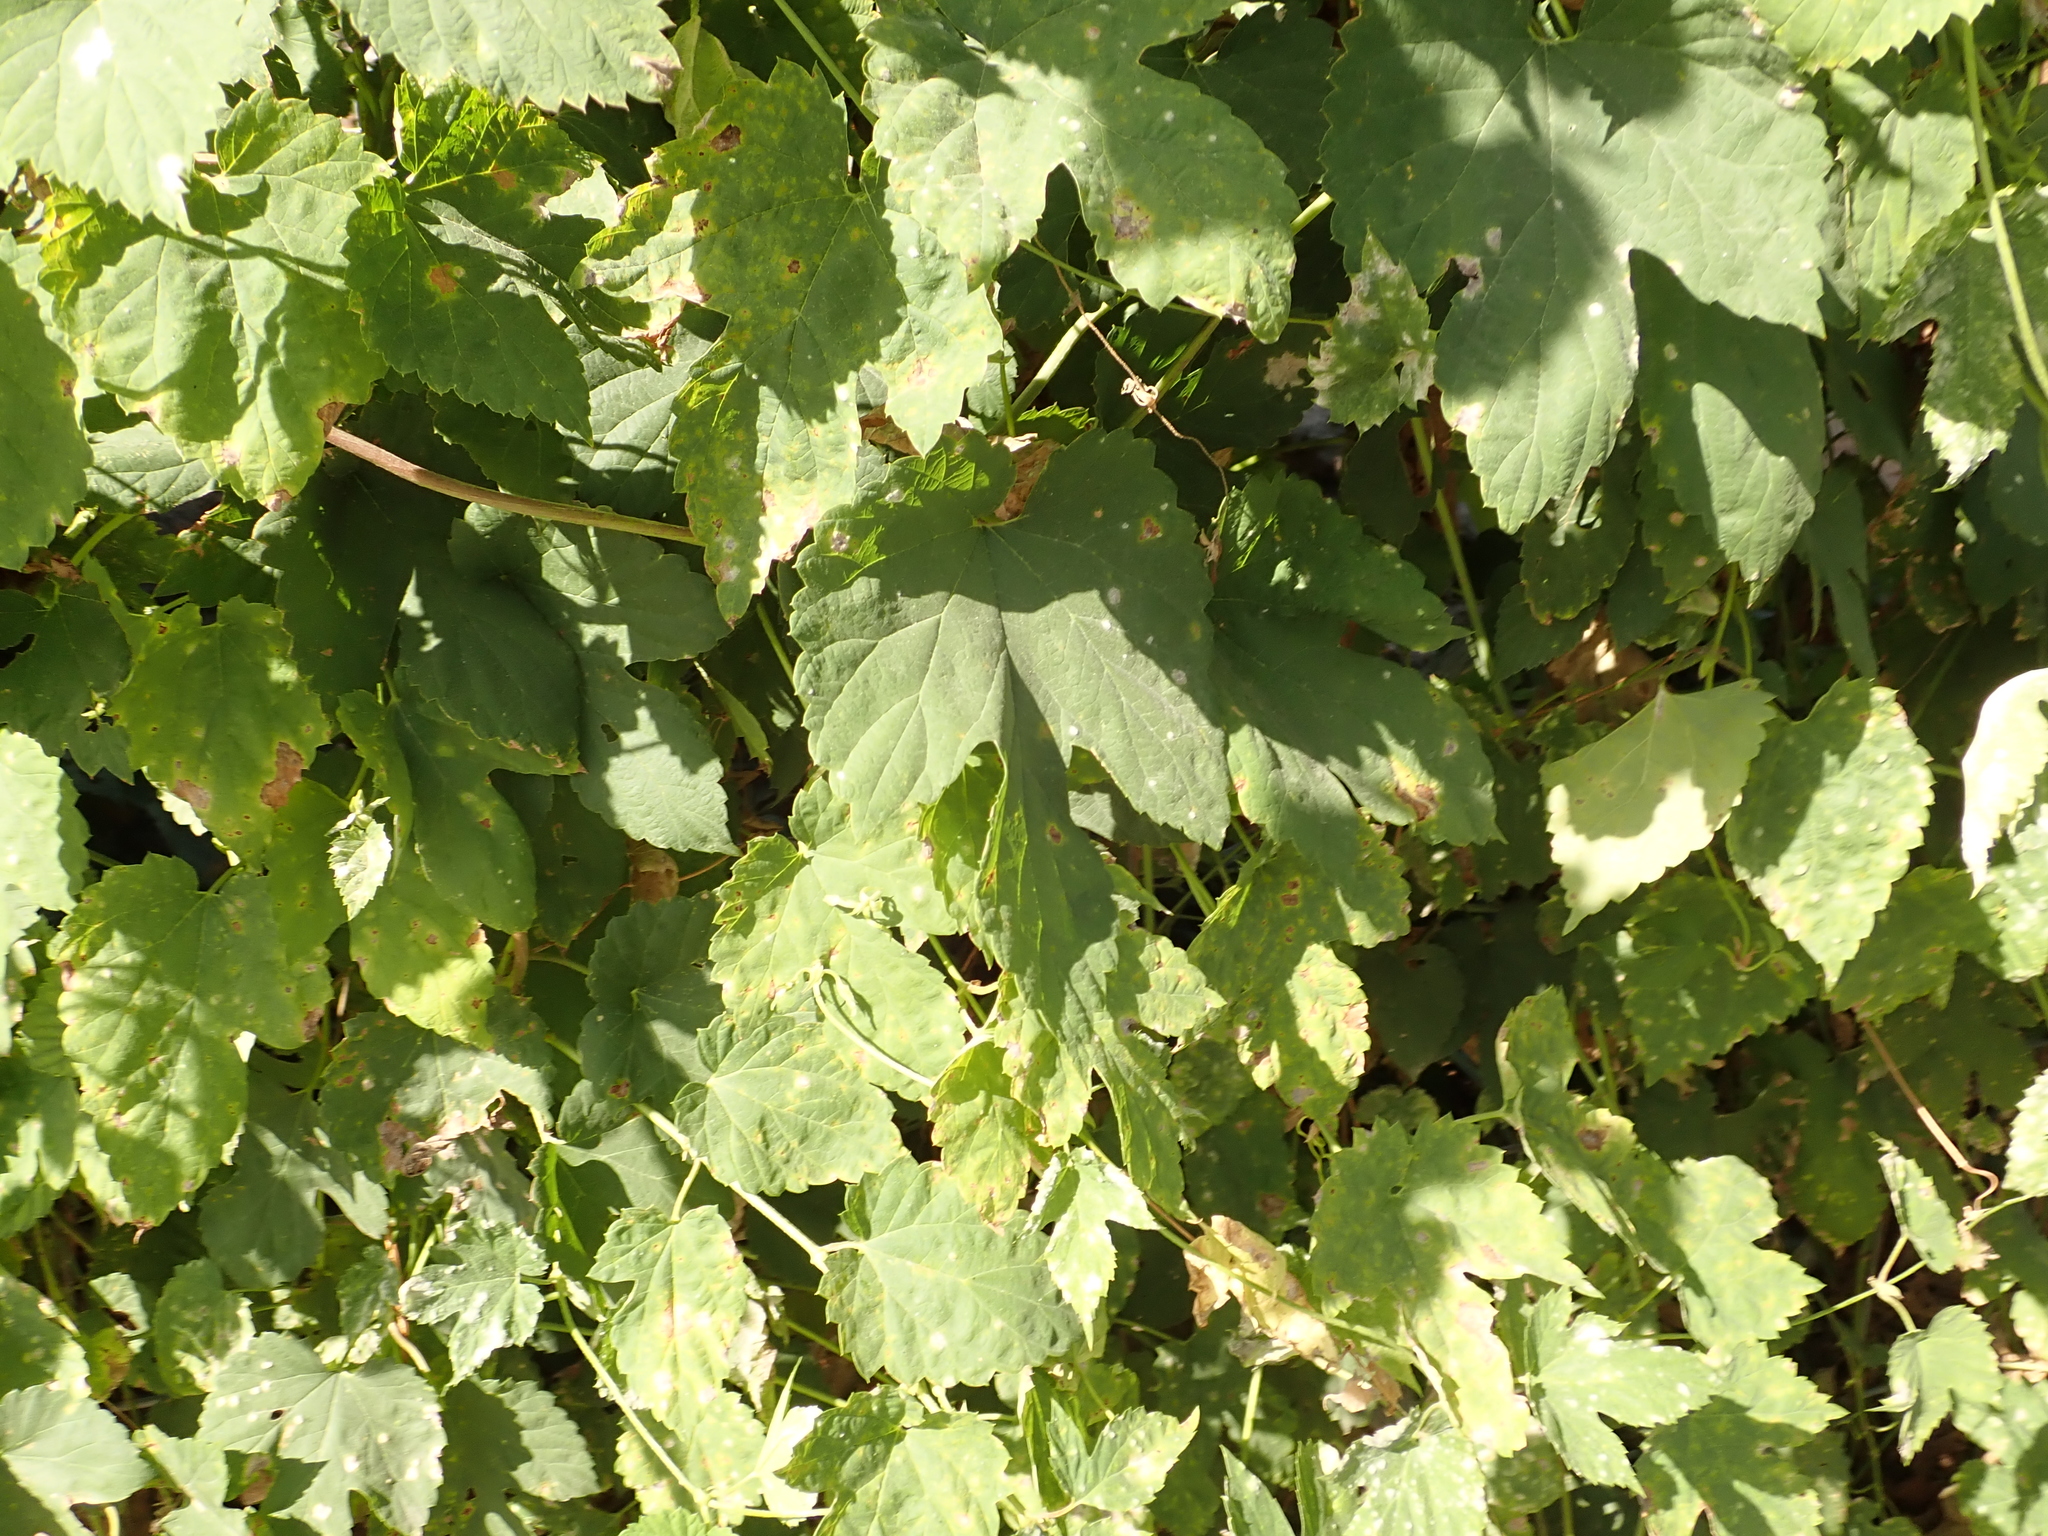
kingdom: Plantae
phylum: Tracheophyta
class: Magnoliopsida
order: Rosales
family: Cannabaceae
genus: Humulus
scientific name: Humulus lupulus
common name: Hop
